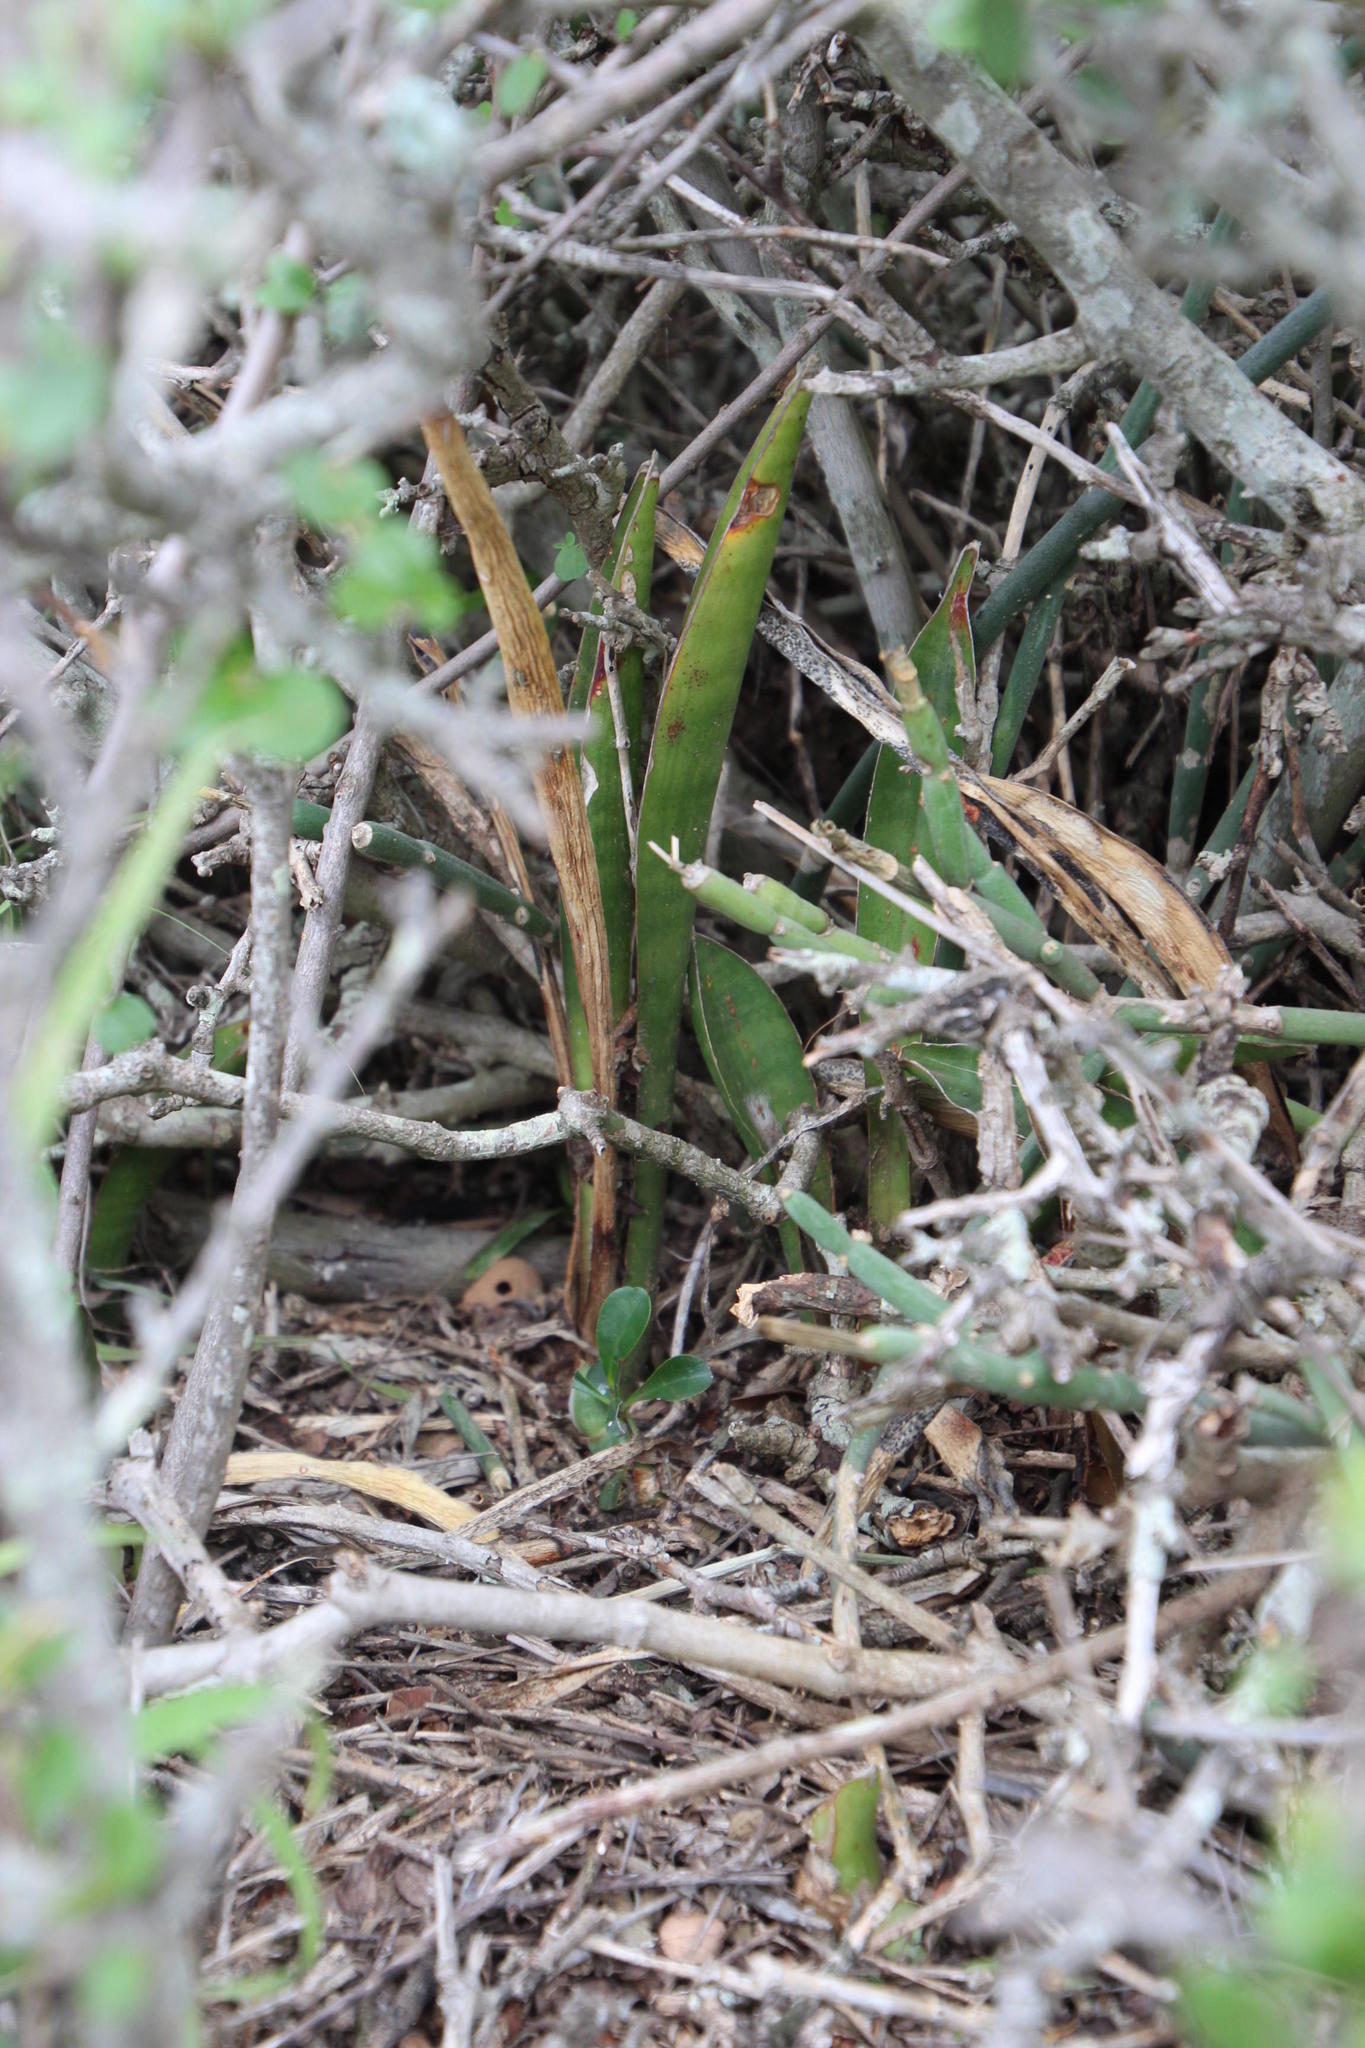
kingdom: Plantae
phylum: Tracheophyta
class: Liliopsida
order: Asparagales
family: Asparagaceae
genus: Dracaena
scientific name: Dracaena aethiopica
